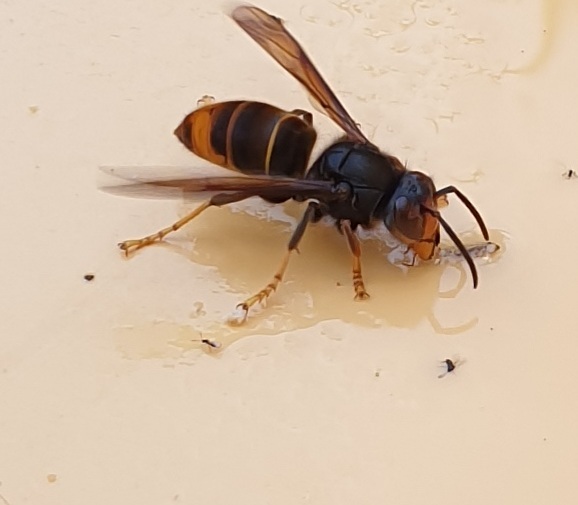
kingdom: Animalia
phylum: Arthropoda
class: Insecta
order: Hymenoptera
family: Vespidae
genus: Vespa
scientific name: Vespa velutina
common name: Asian hornet
